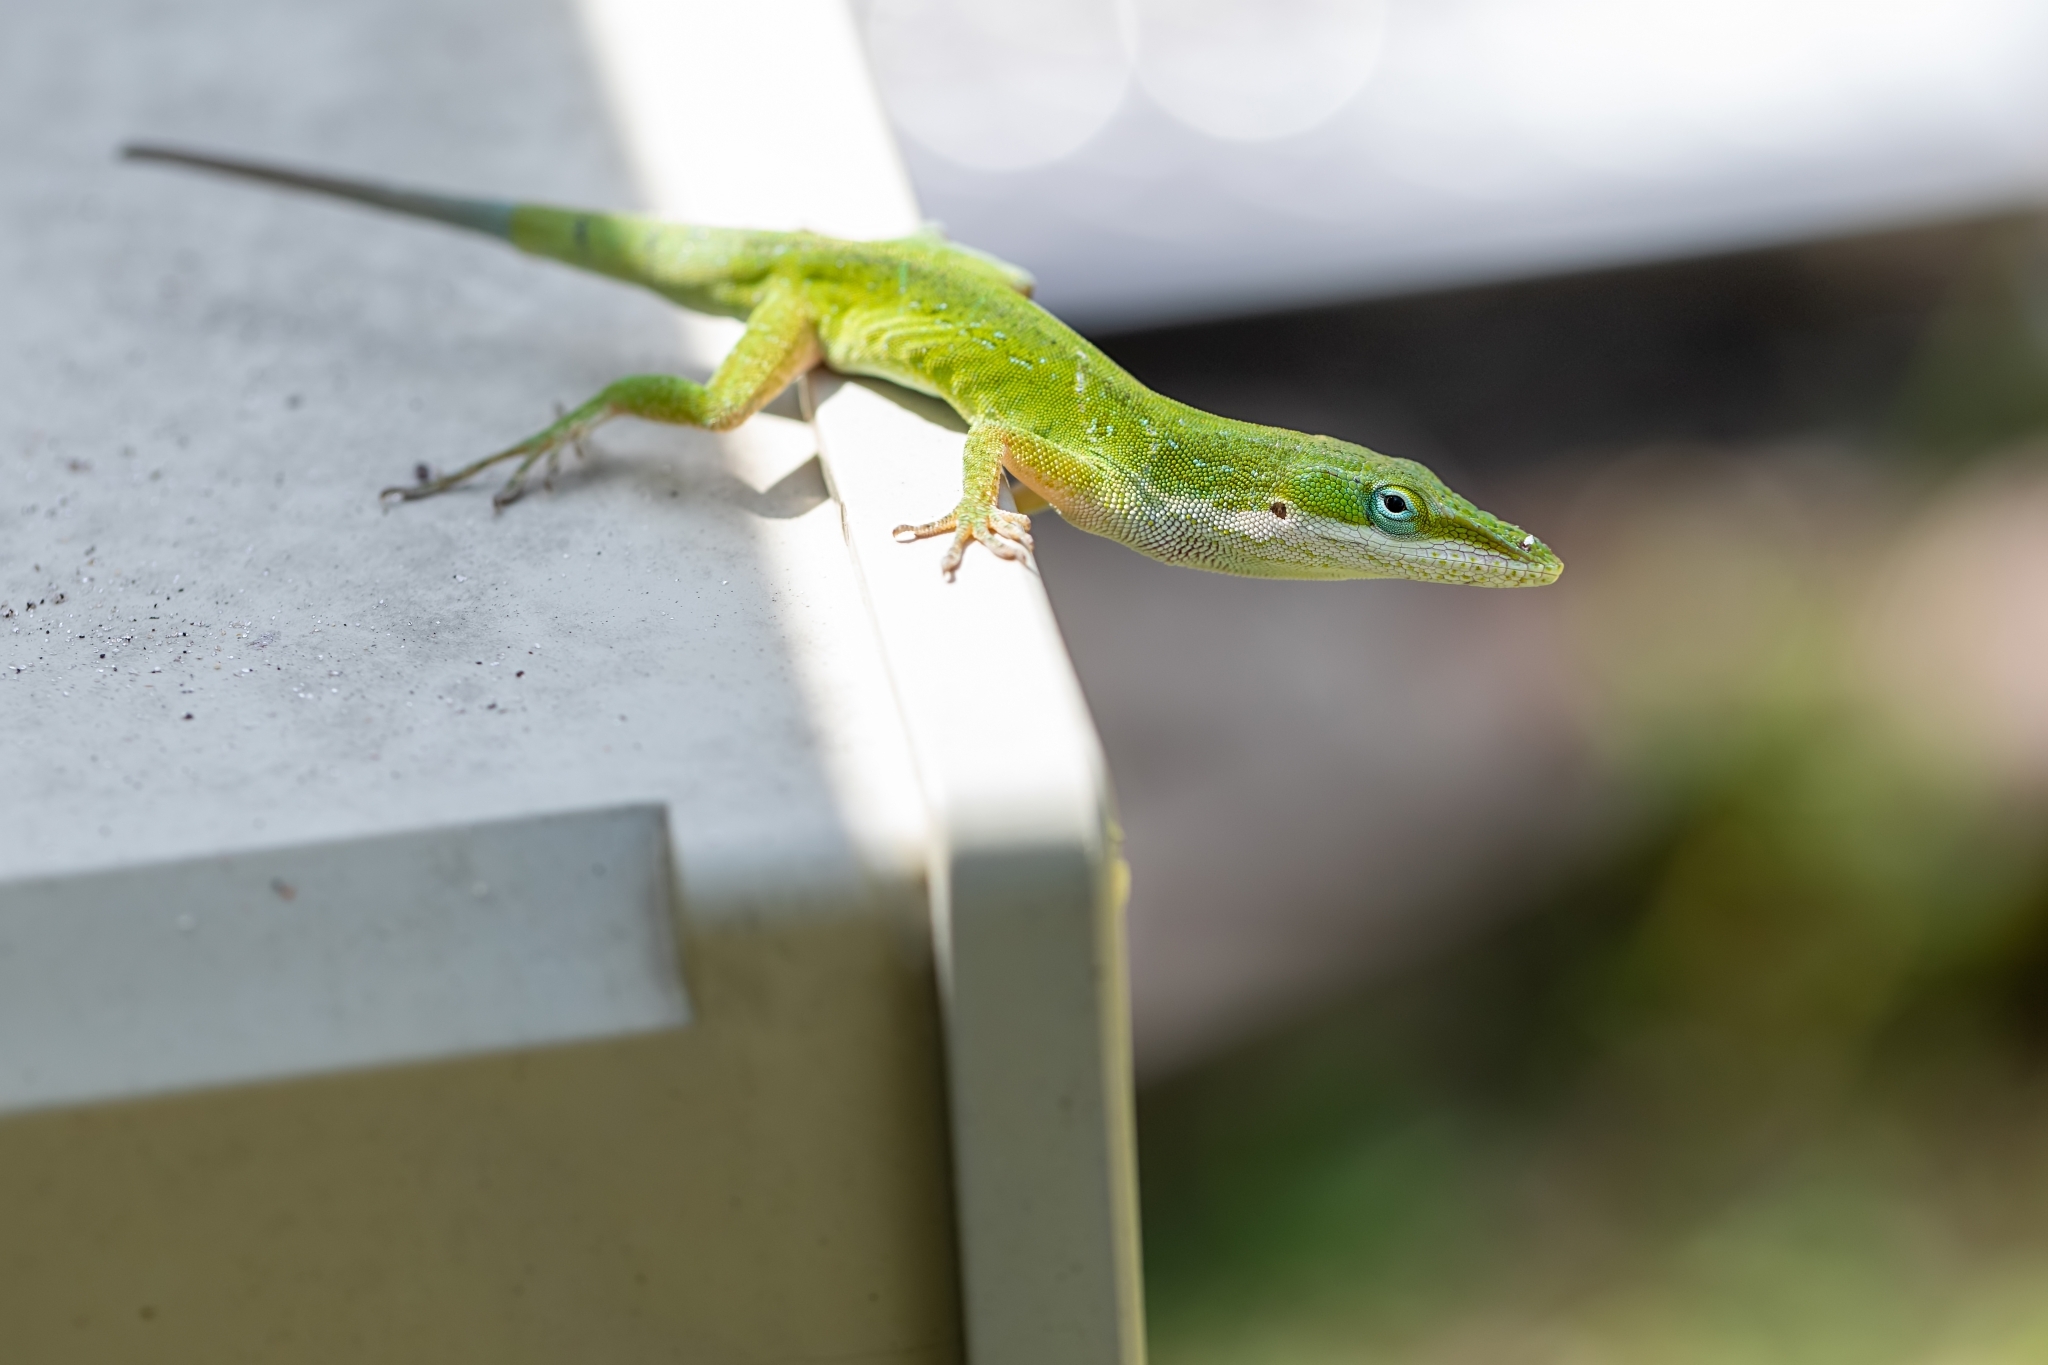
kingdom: Animalia
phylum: Chordata
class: Squamata
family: Dactyloidae
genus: Anolis
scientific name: Anolis carolinensis
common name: Green anole
